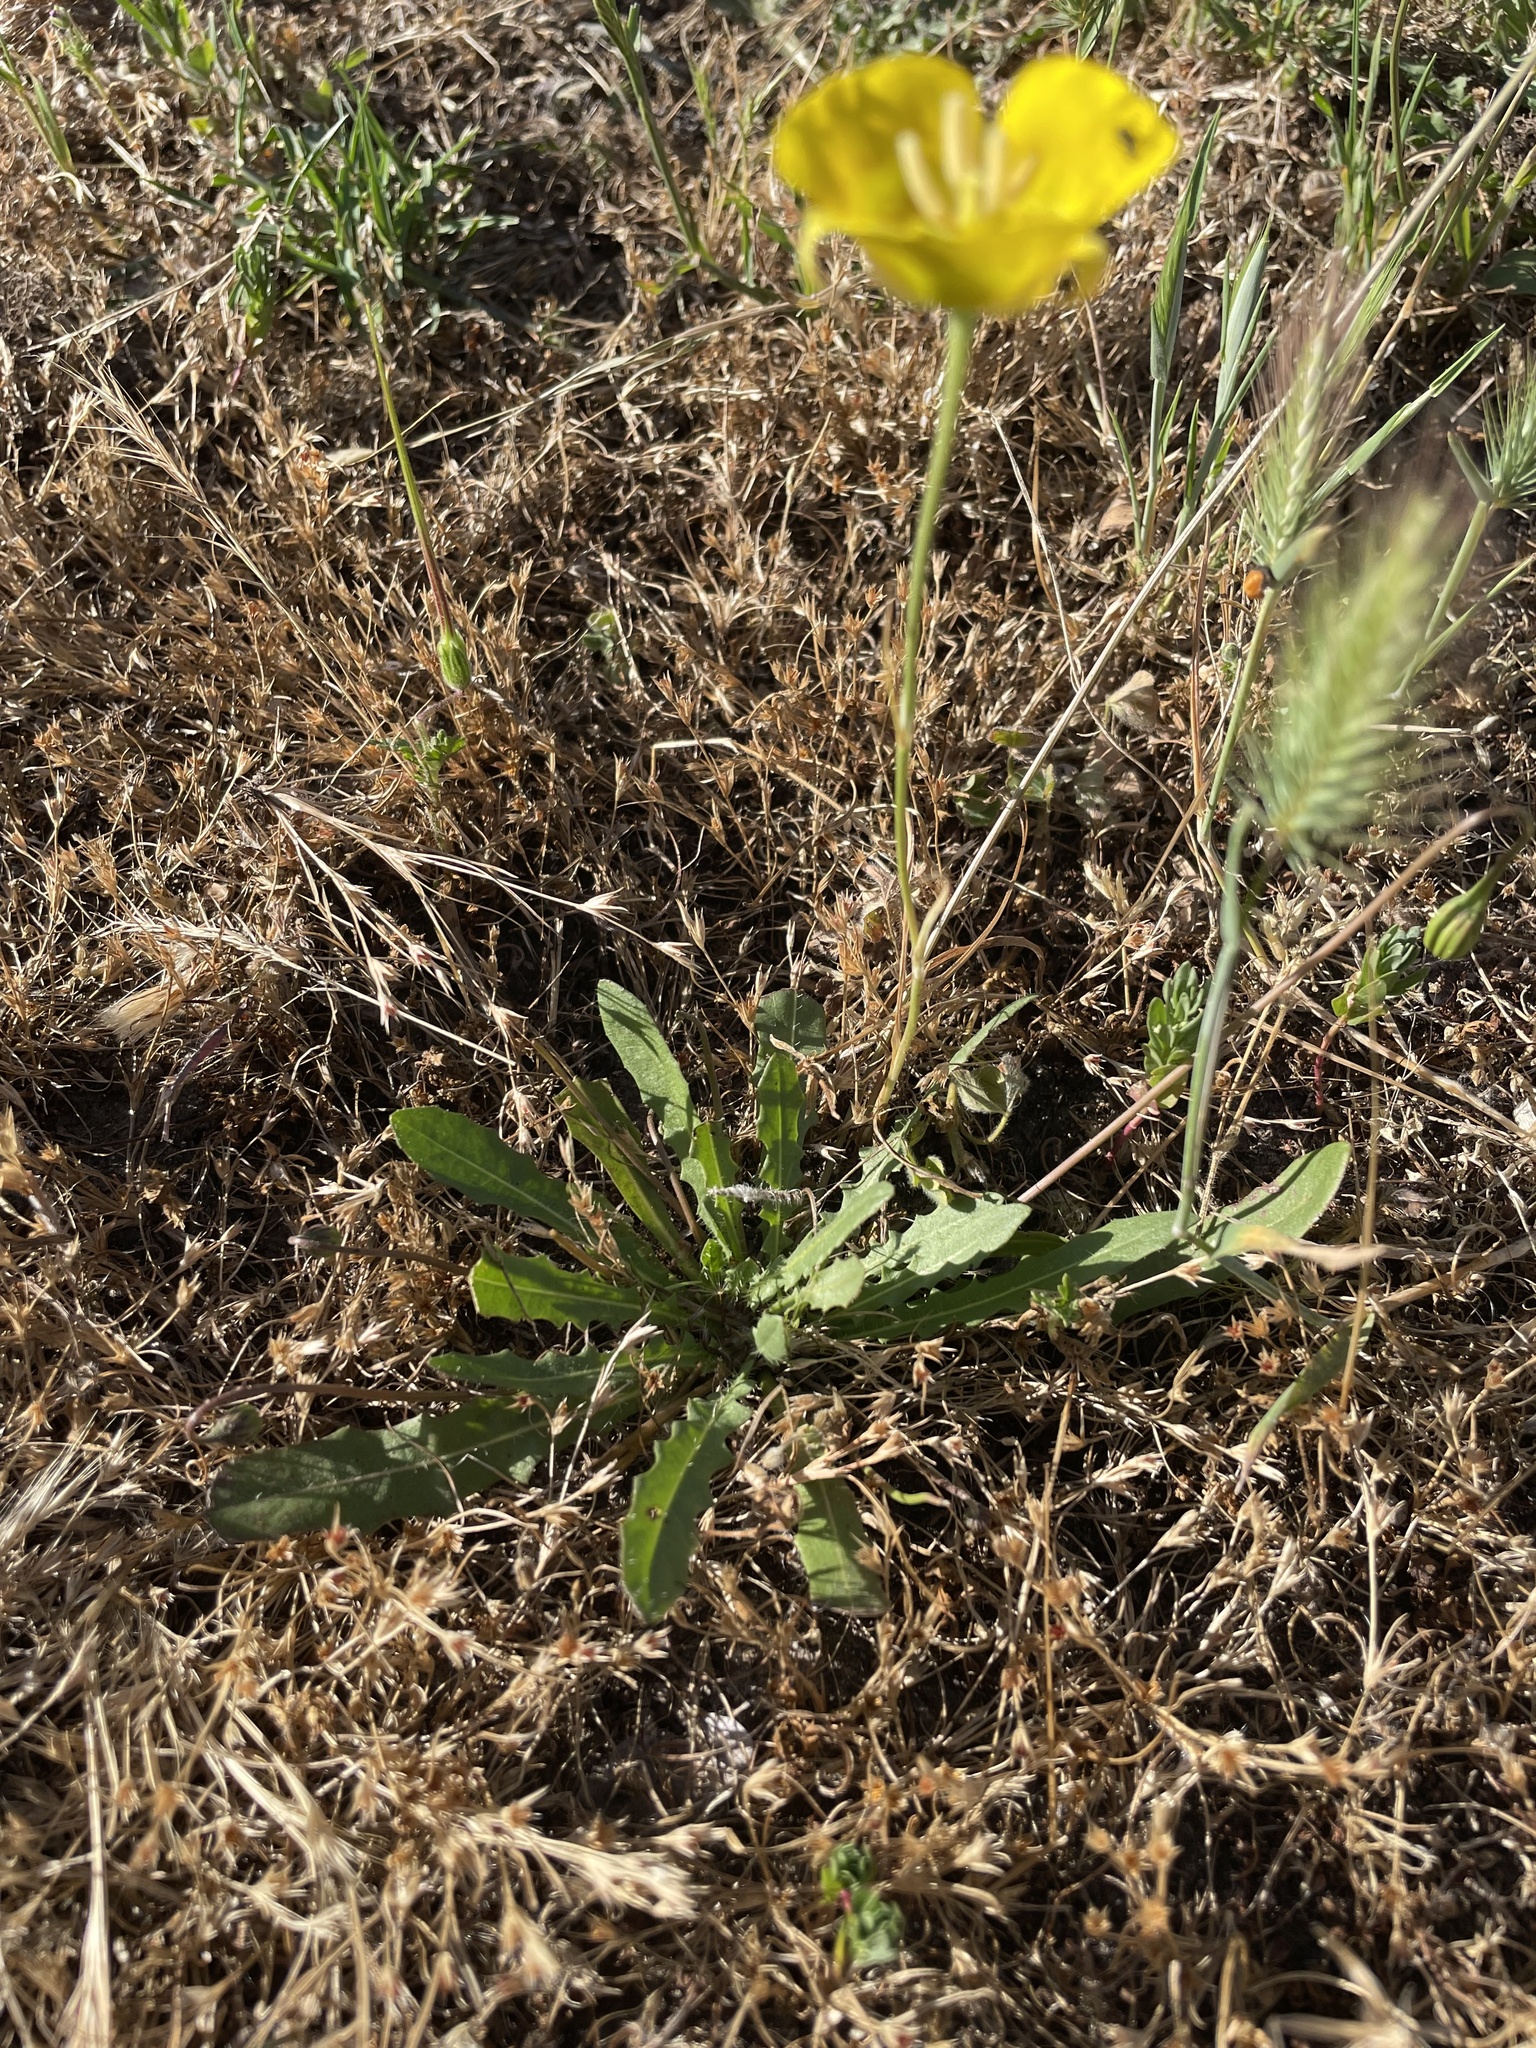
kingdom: Plantae
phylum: Tracheophyta
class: Liliopsida
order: Liliales
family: Liliaceae
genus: Calochortus
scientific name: Calochortus luteus
